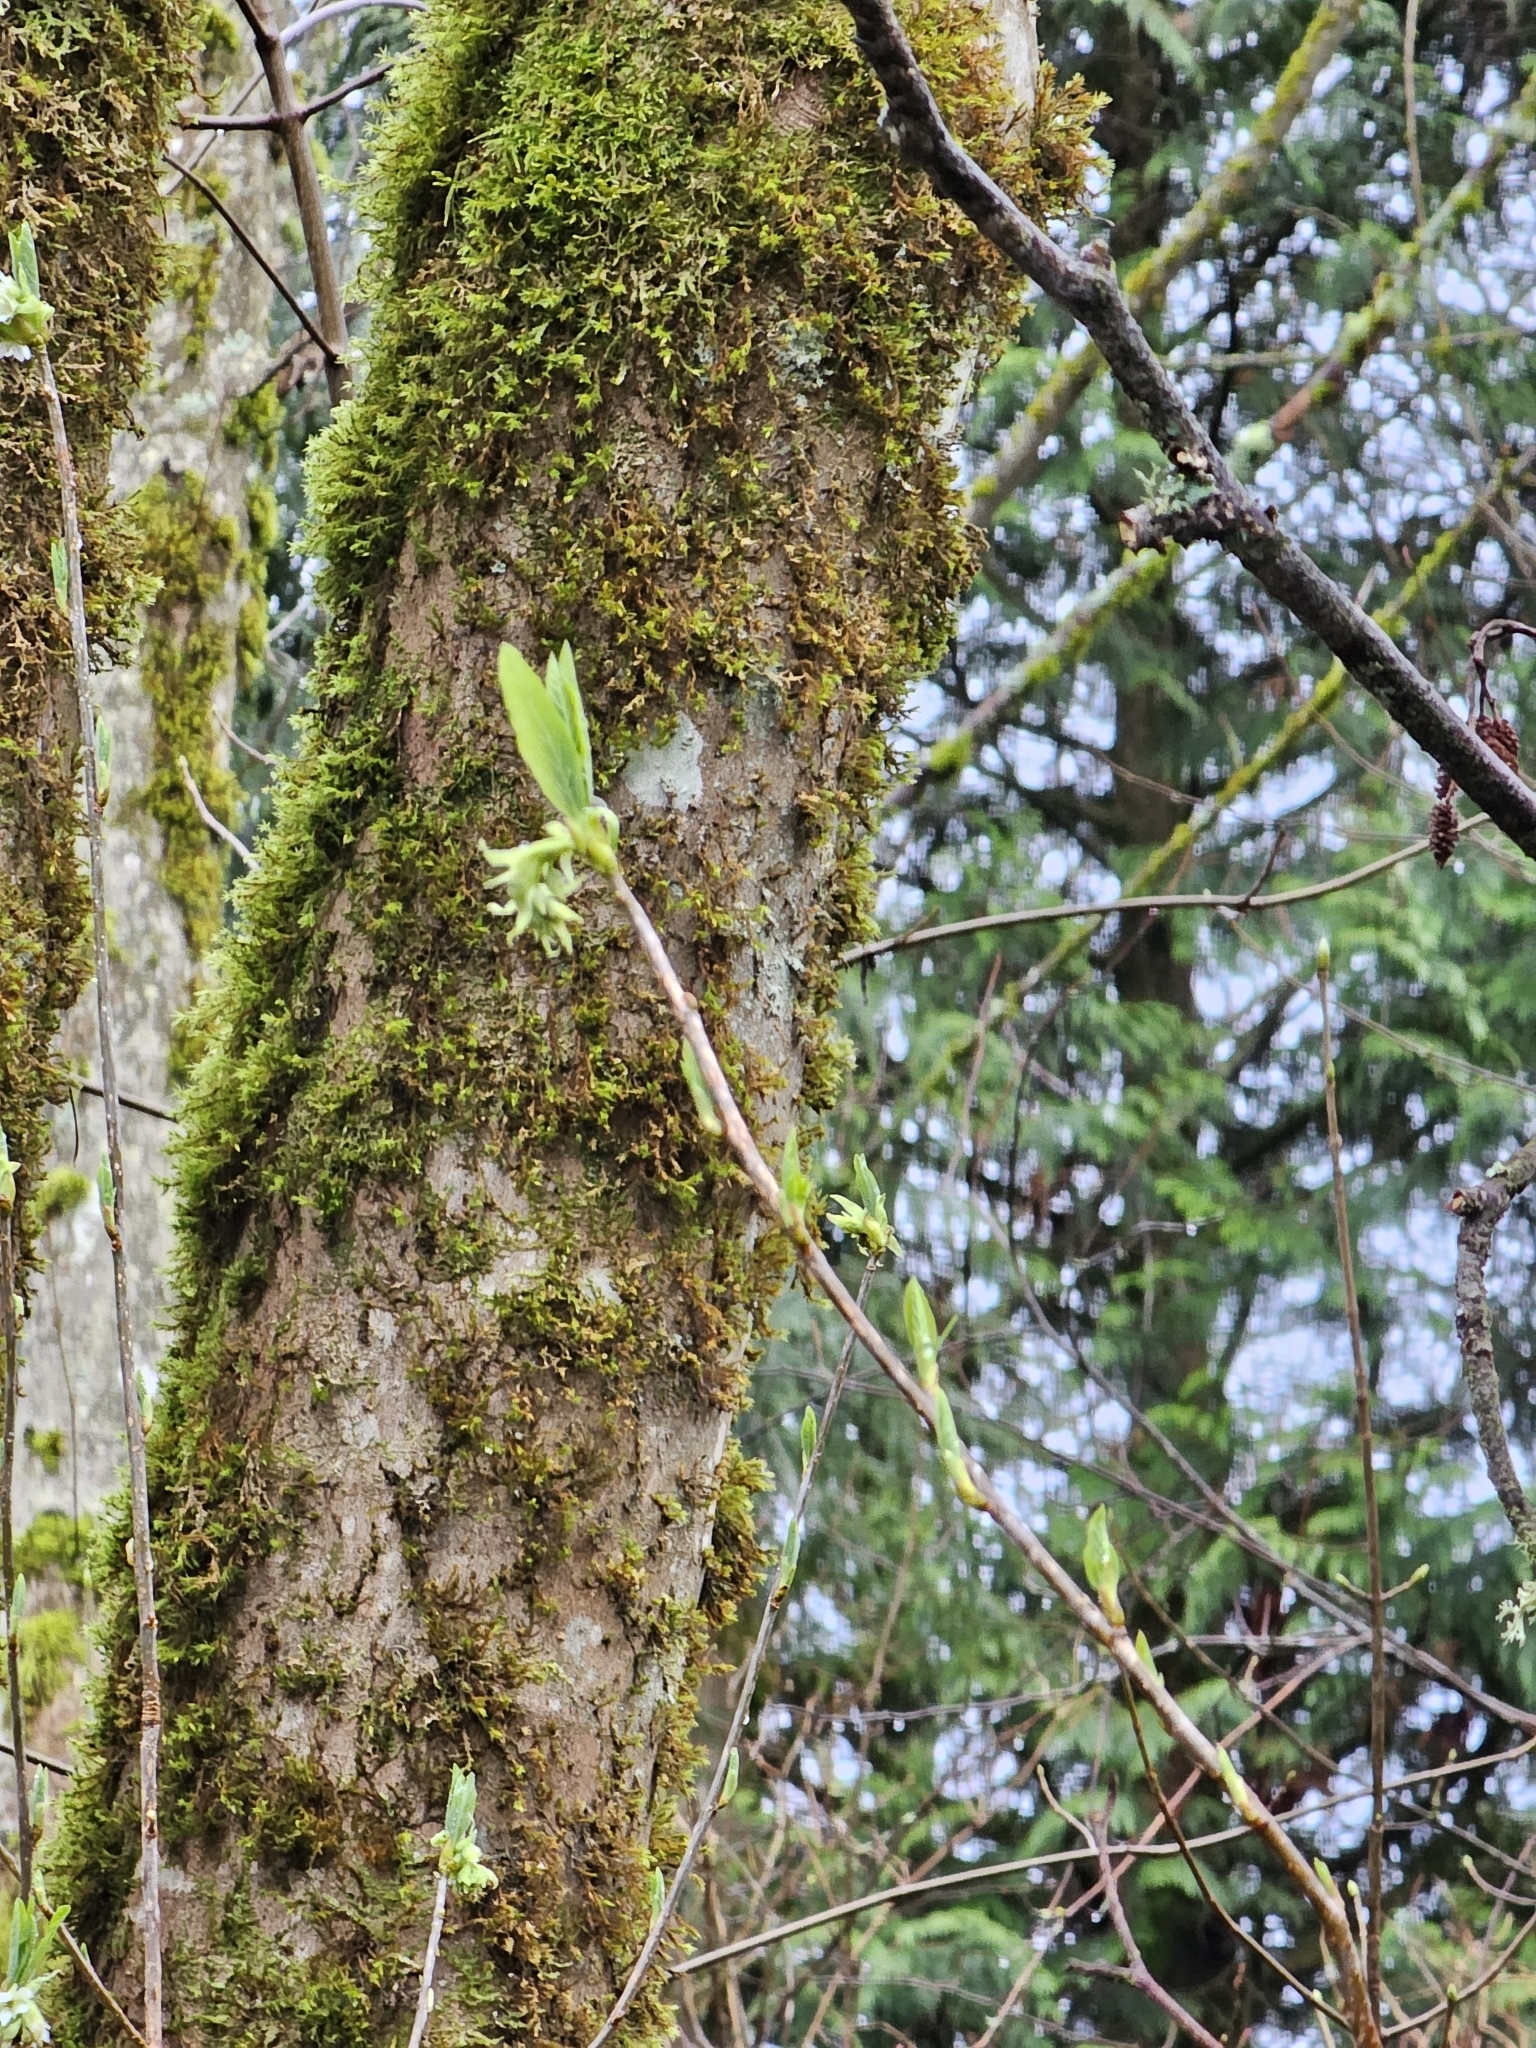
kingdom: Plantae
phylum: Tracheophyta
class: Magnoliopsida
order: Rosales
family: Rosaceae
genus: Oemleria
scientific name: Oemleria cerasiformis
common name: Osoberry
